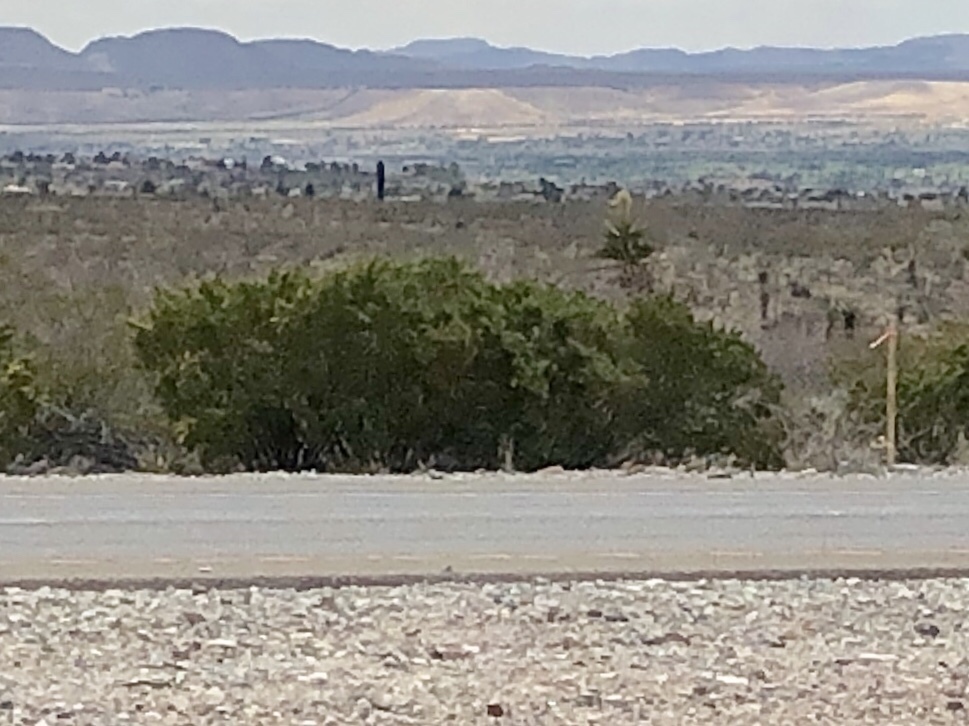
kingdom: Plantae
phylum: Tracheophyta
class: Magnoliopsida
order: Zygophyllales
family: Zygophyllaceae
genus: Larrea
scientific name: Larrea tridentata
